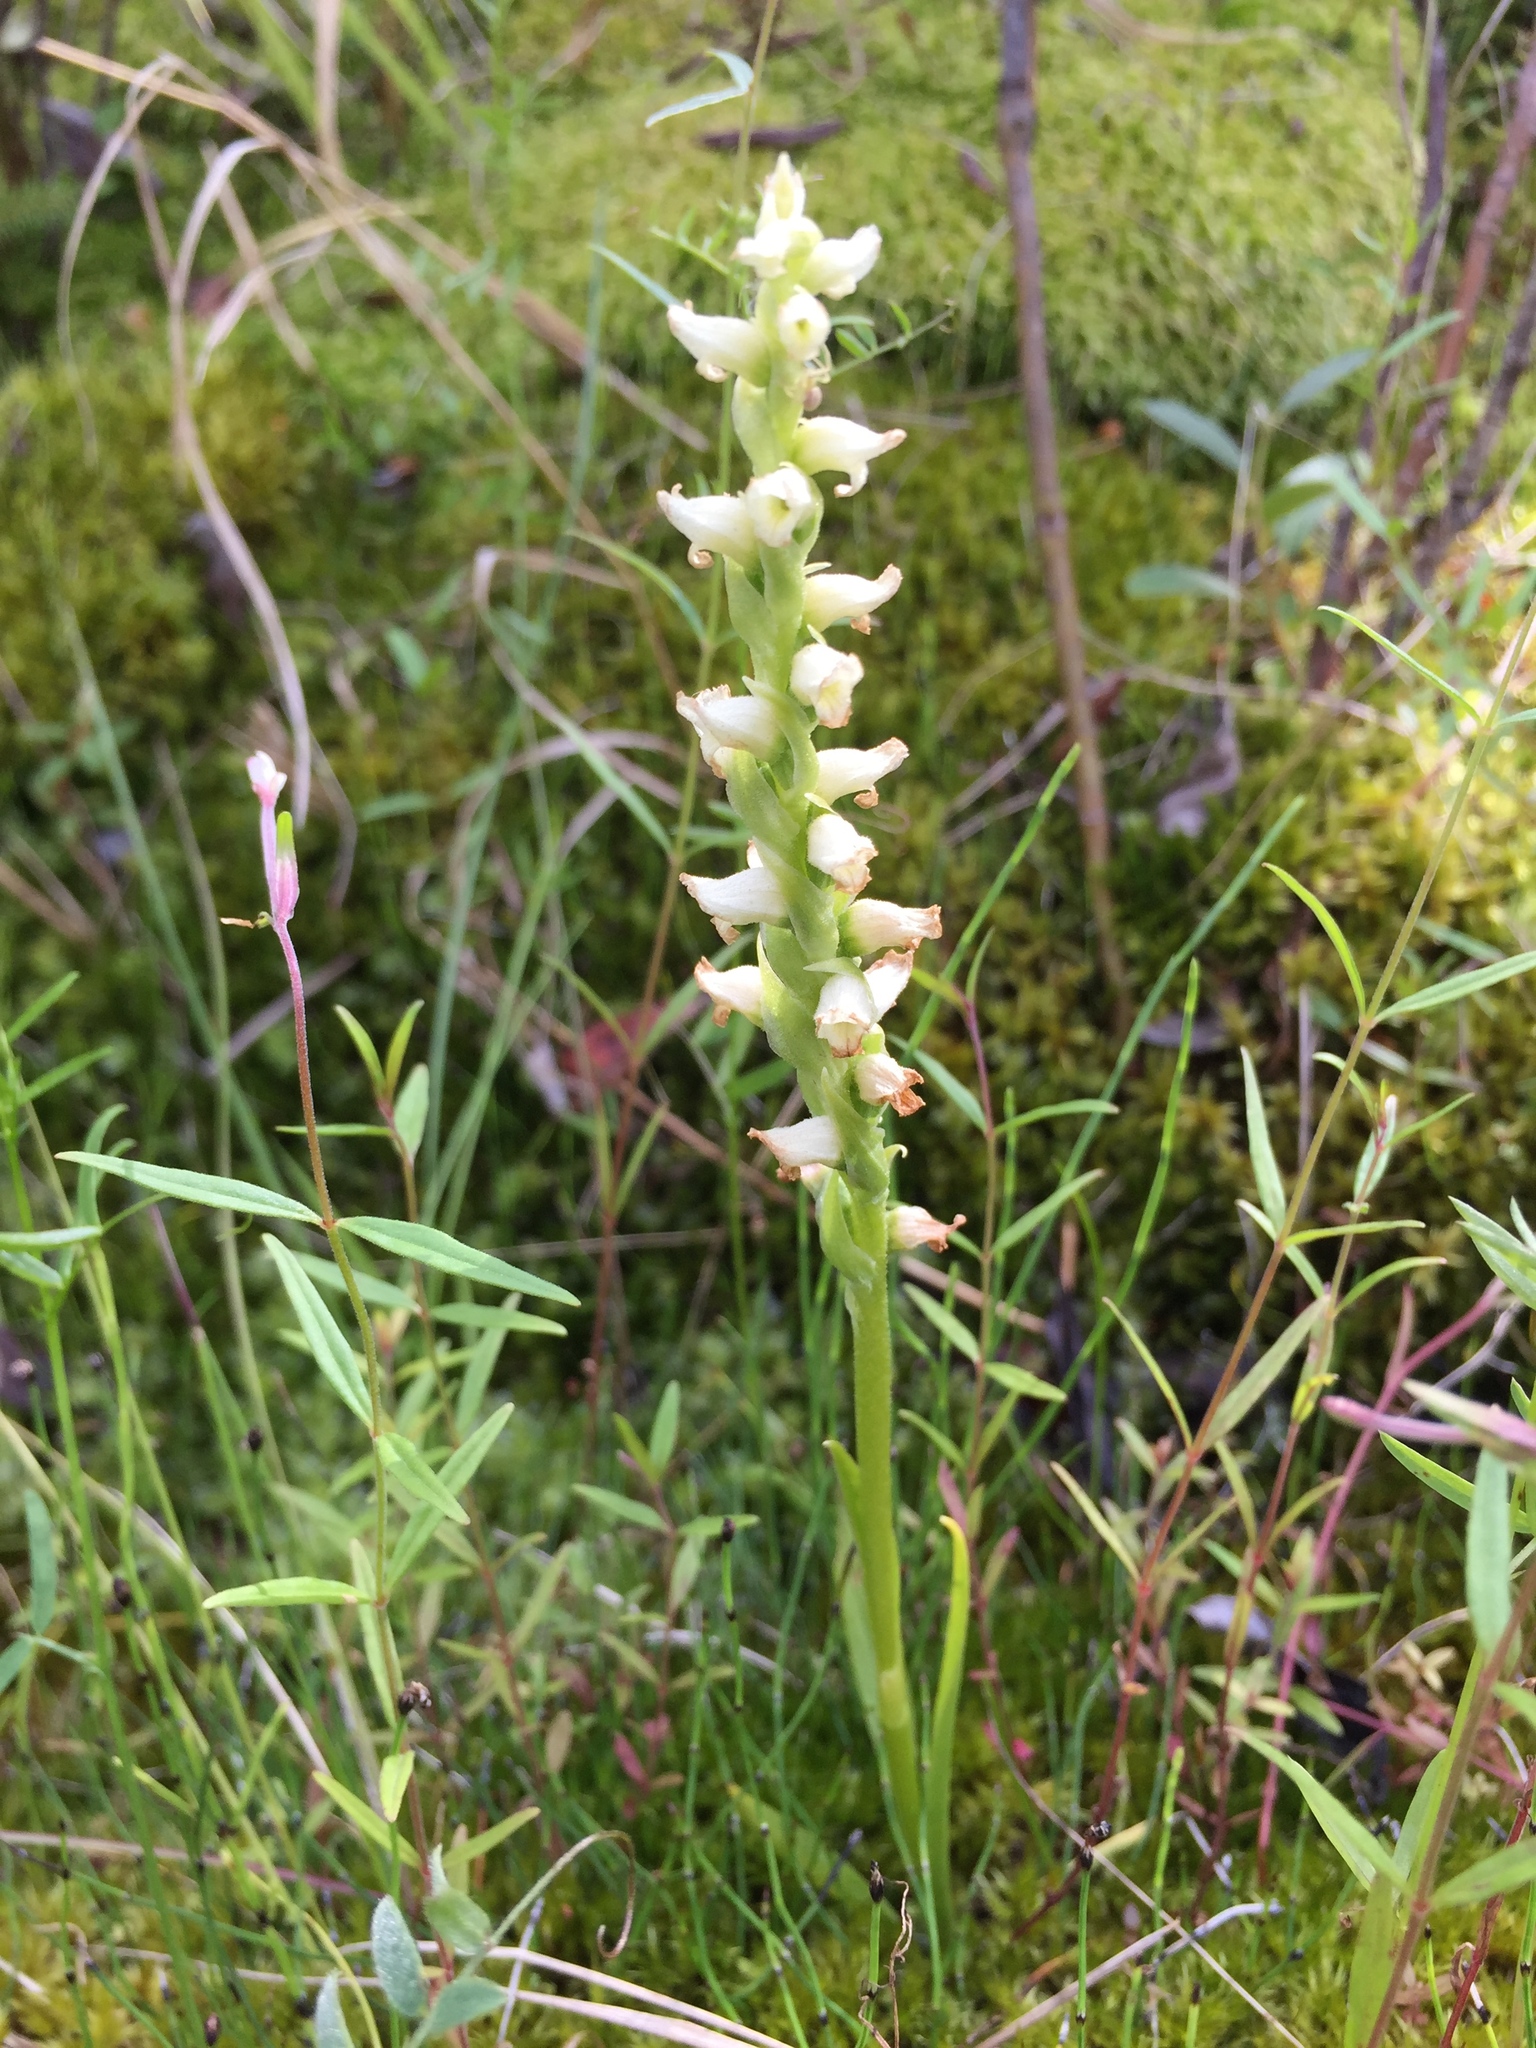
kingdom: Plantae
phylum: Tracheophyta
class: Liliopsida
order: Asparagales
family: Orchidaceae
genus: Spiranthes
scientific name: Spiranthes romanzoffiana
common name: Irish lady's-tresses
